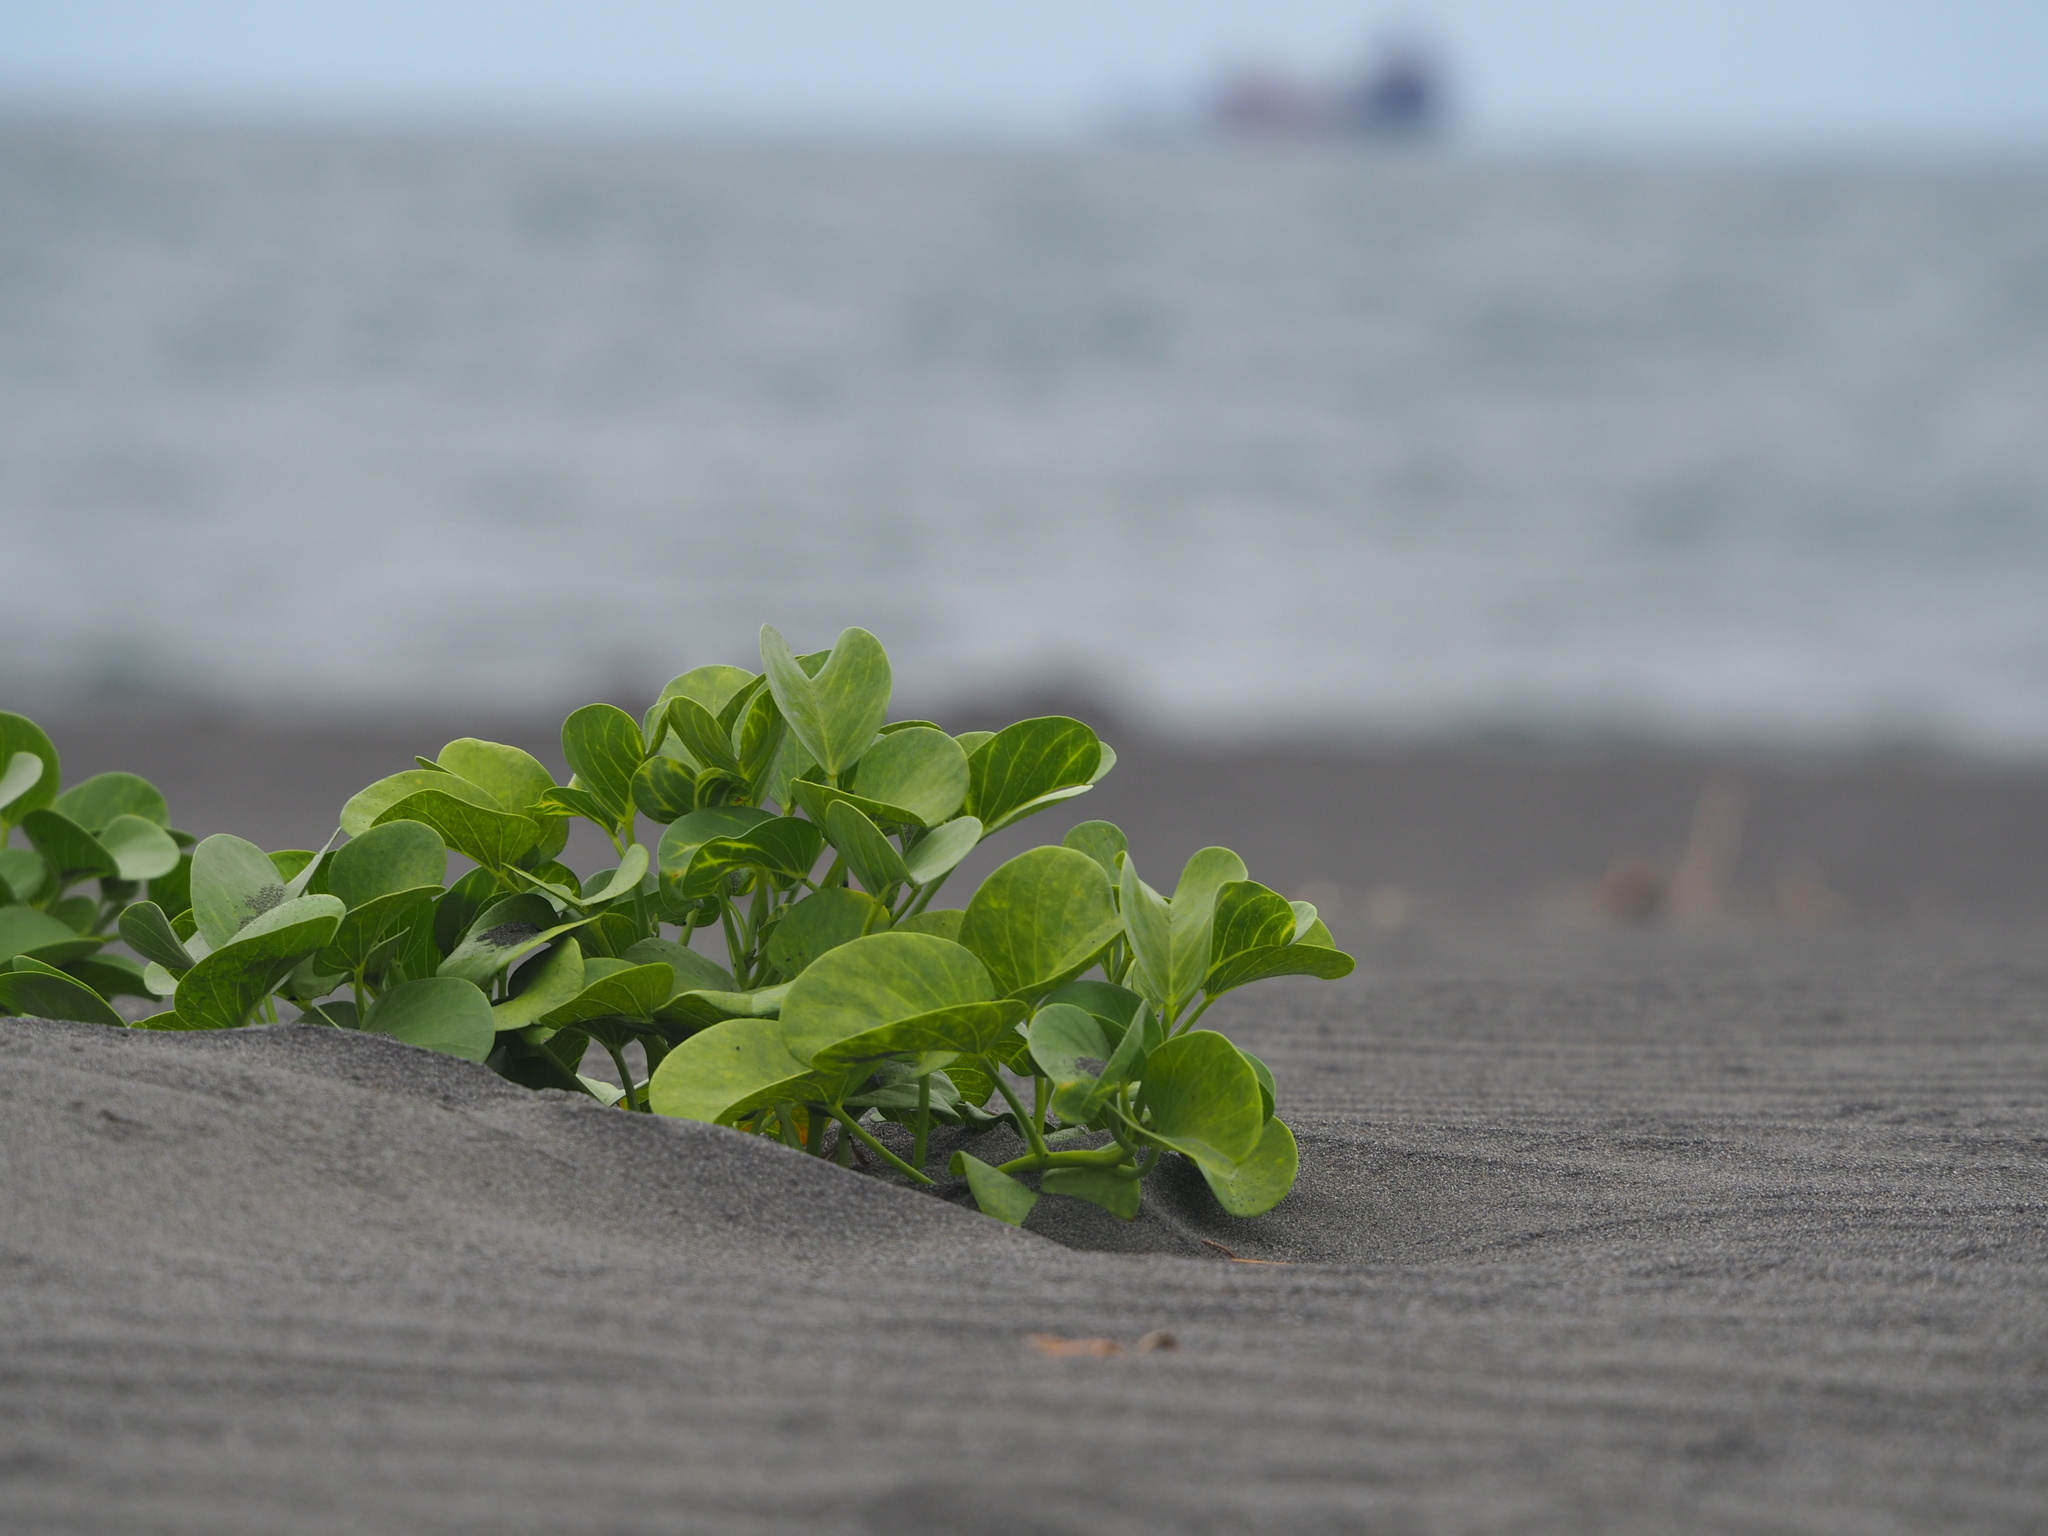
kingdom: Plantae
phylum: Tracheophyta
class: Magnoliopsida
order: Solanales
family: Convolvulaceae
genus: Ipomoea
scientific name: Ipomoea pes-caprae
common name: Beach morning glory
